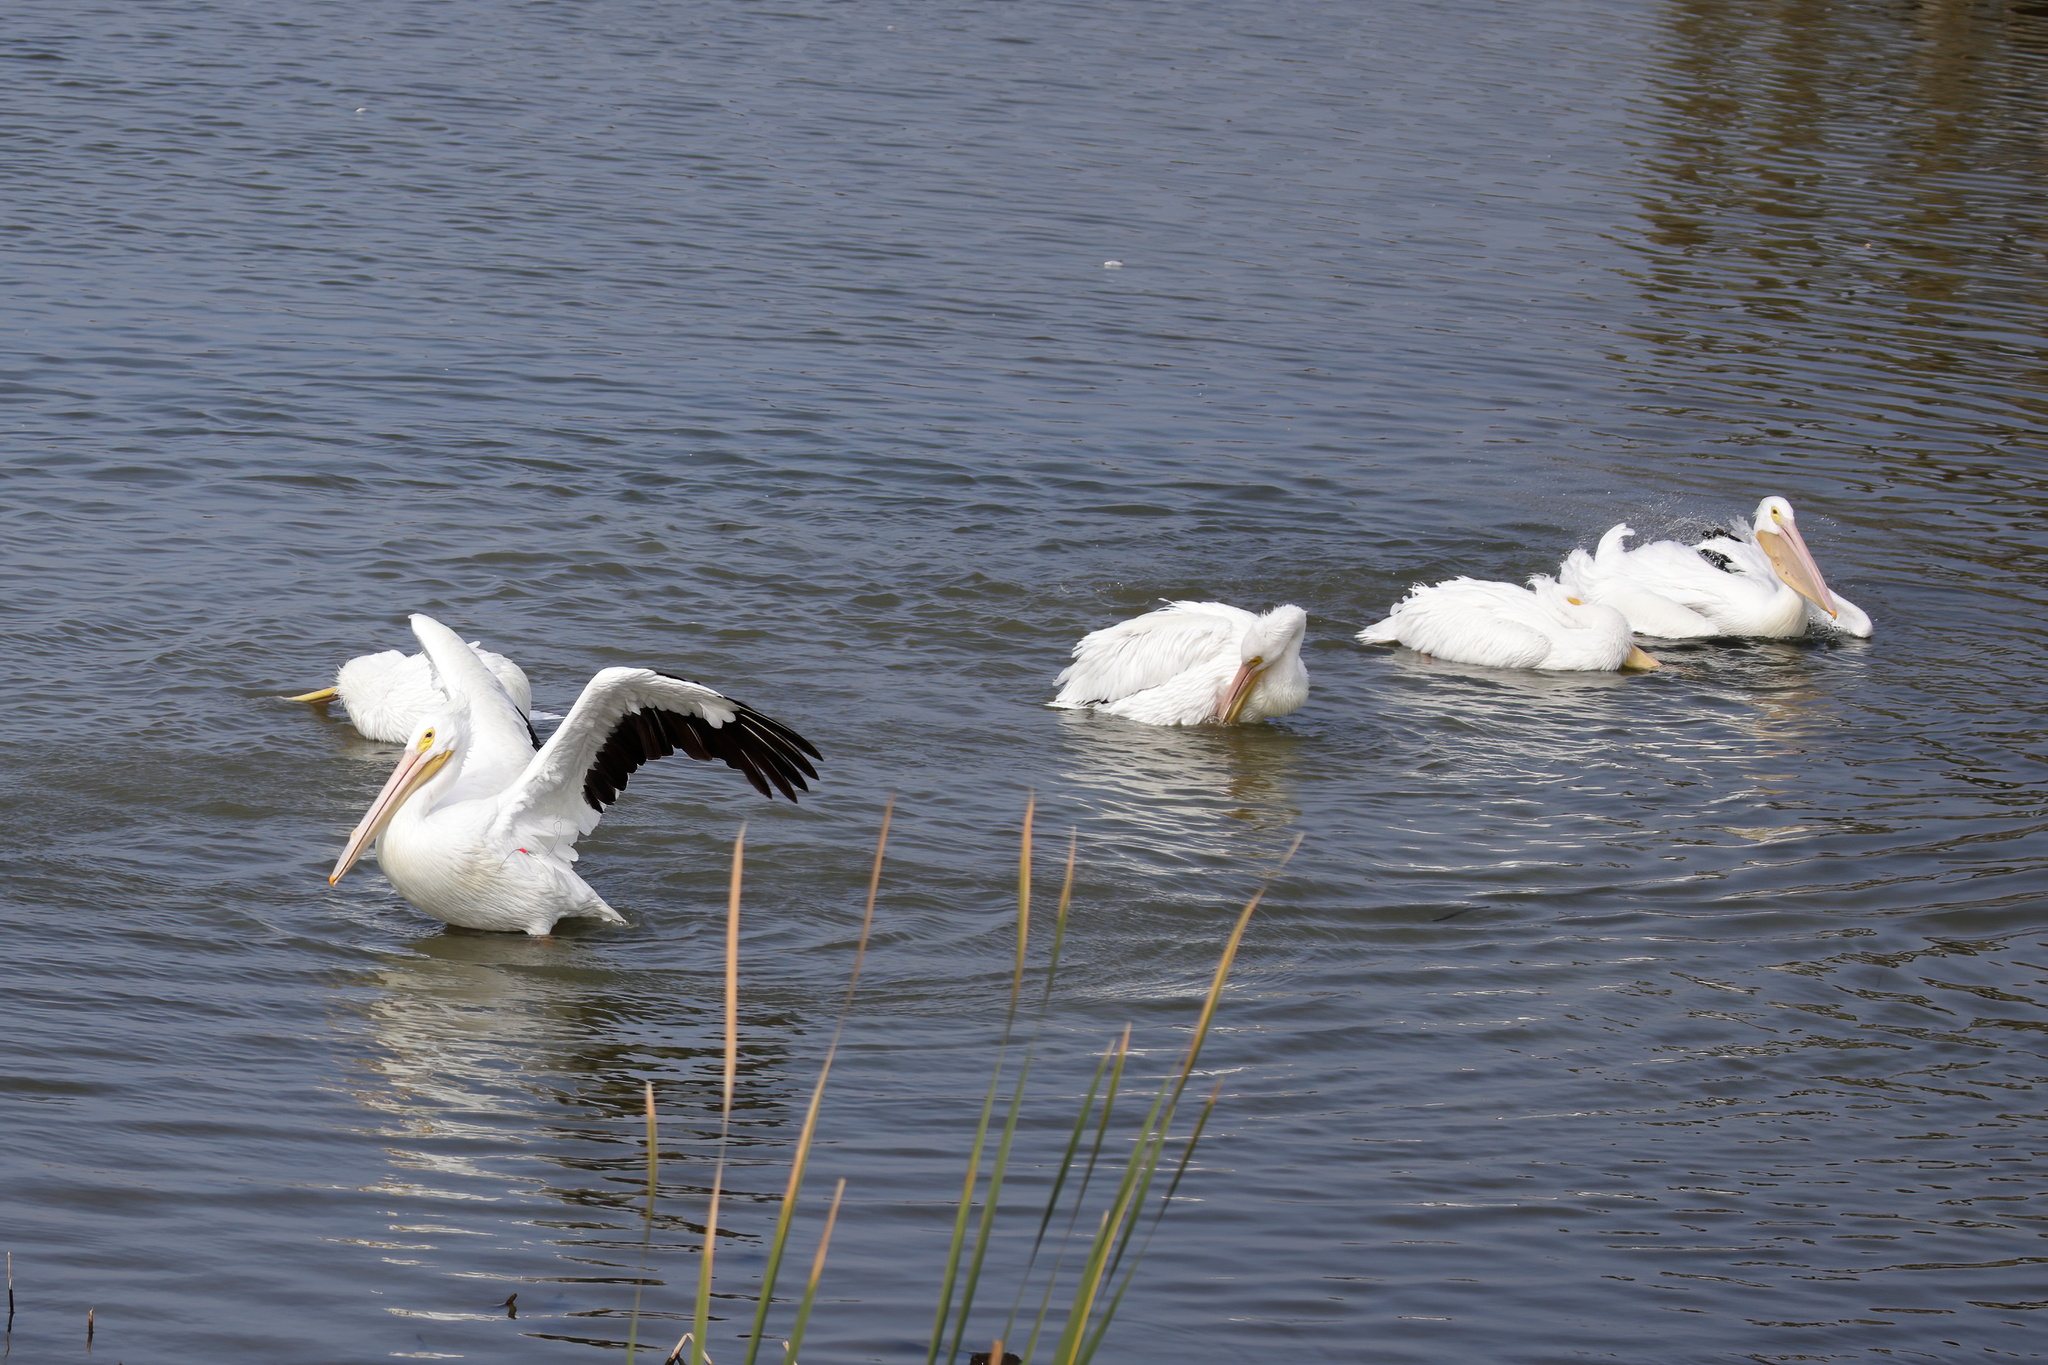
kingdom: Animalia
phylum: Chordata
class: Aves
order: Pelecaniformes
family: Pelecanidae
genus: Pelecanus
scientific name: Pelecanus erythrorhynchos
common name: American white pelican
